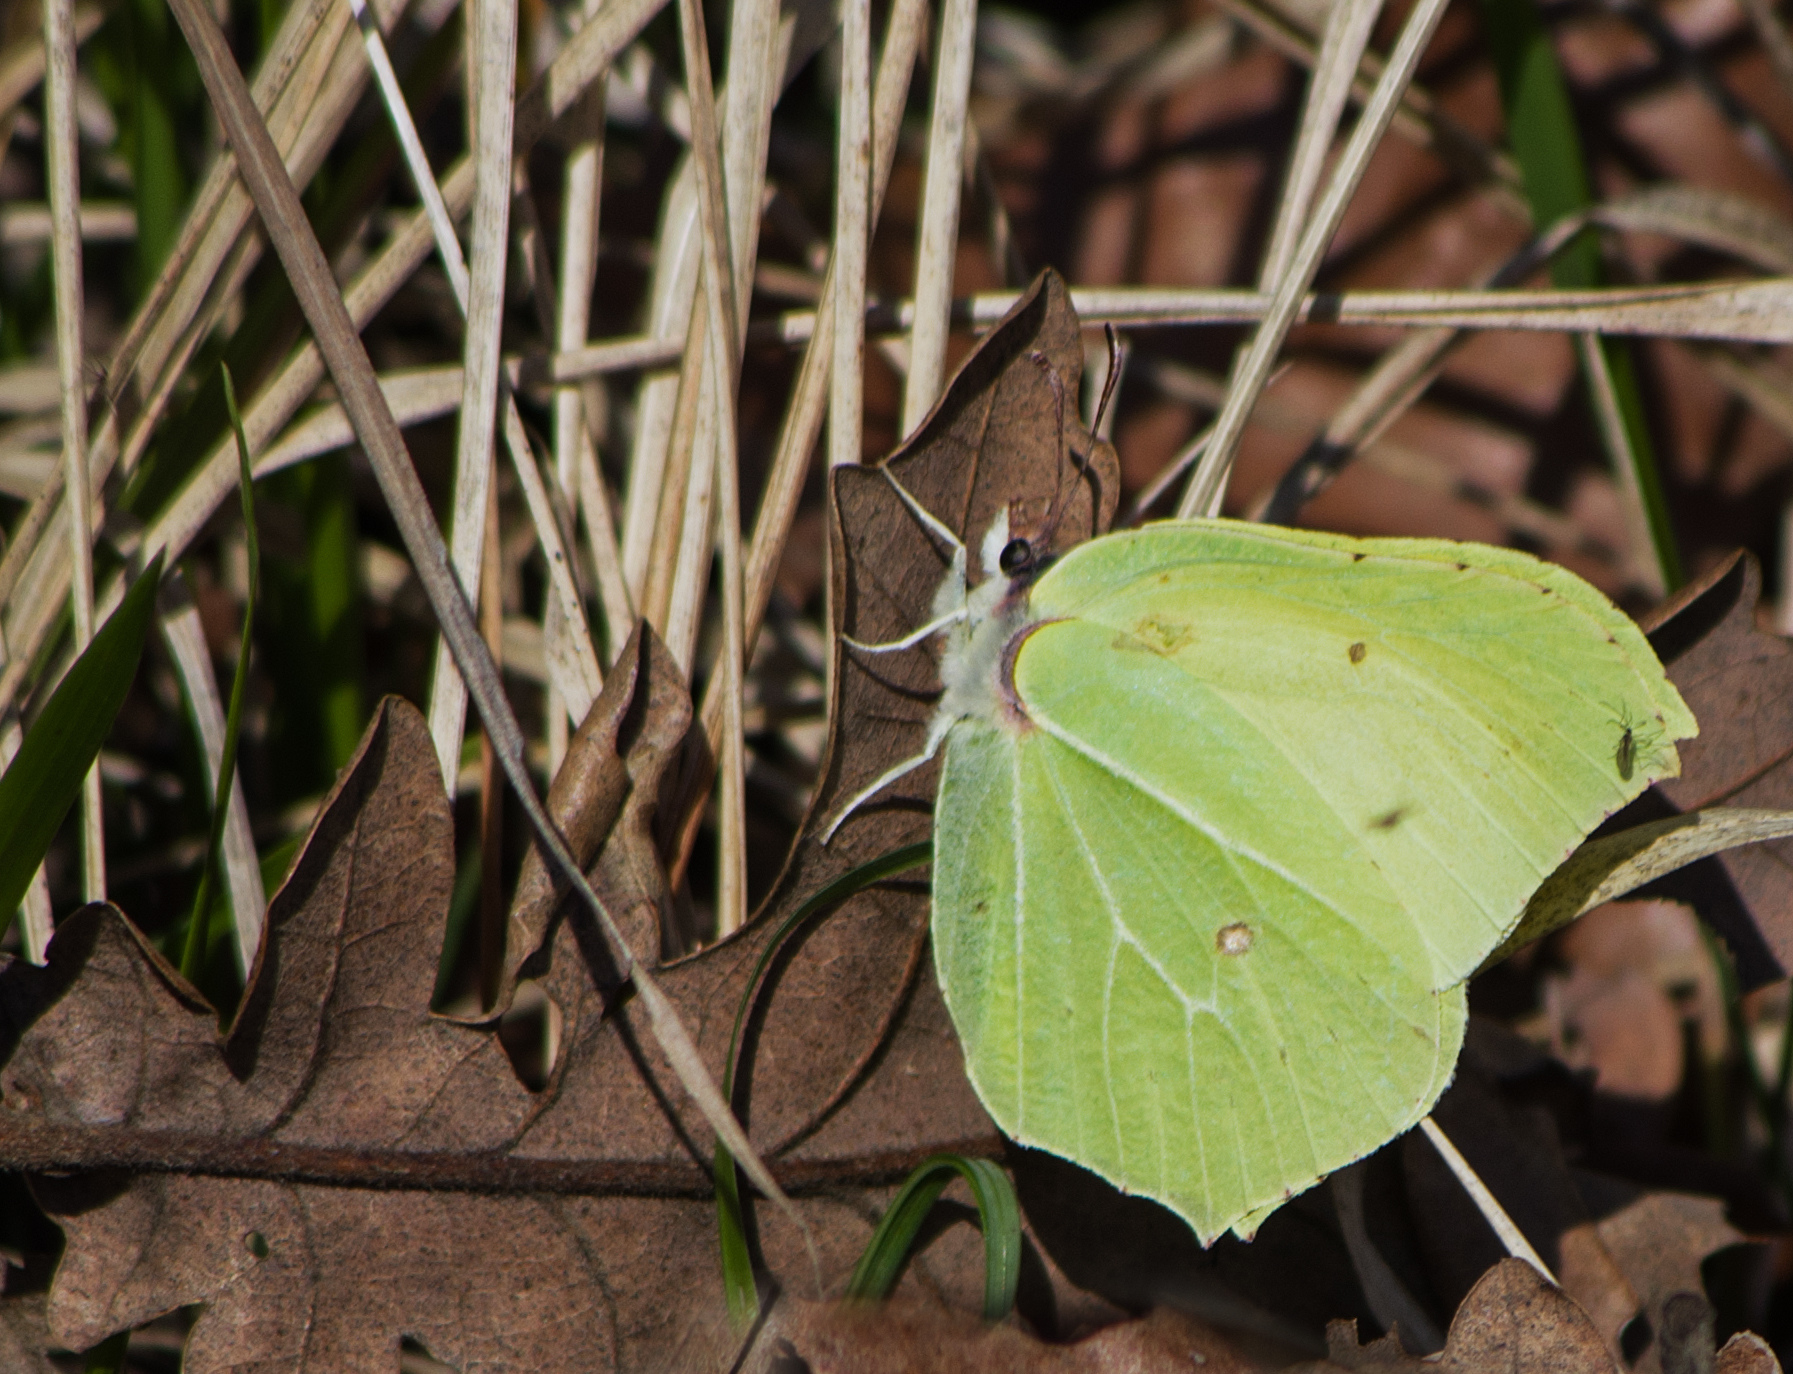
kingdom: Animalia
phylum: Arthropoda
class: Insecta
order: Lepidoptera
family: Pieridae
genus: Gonepteryx
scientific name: Gonepteryx rhamni
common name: Brimstone
